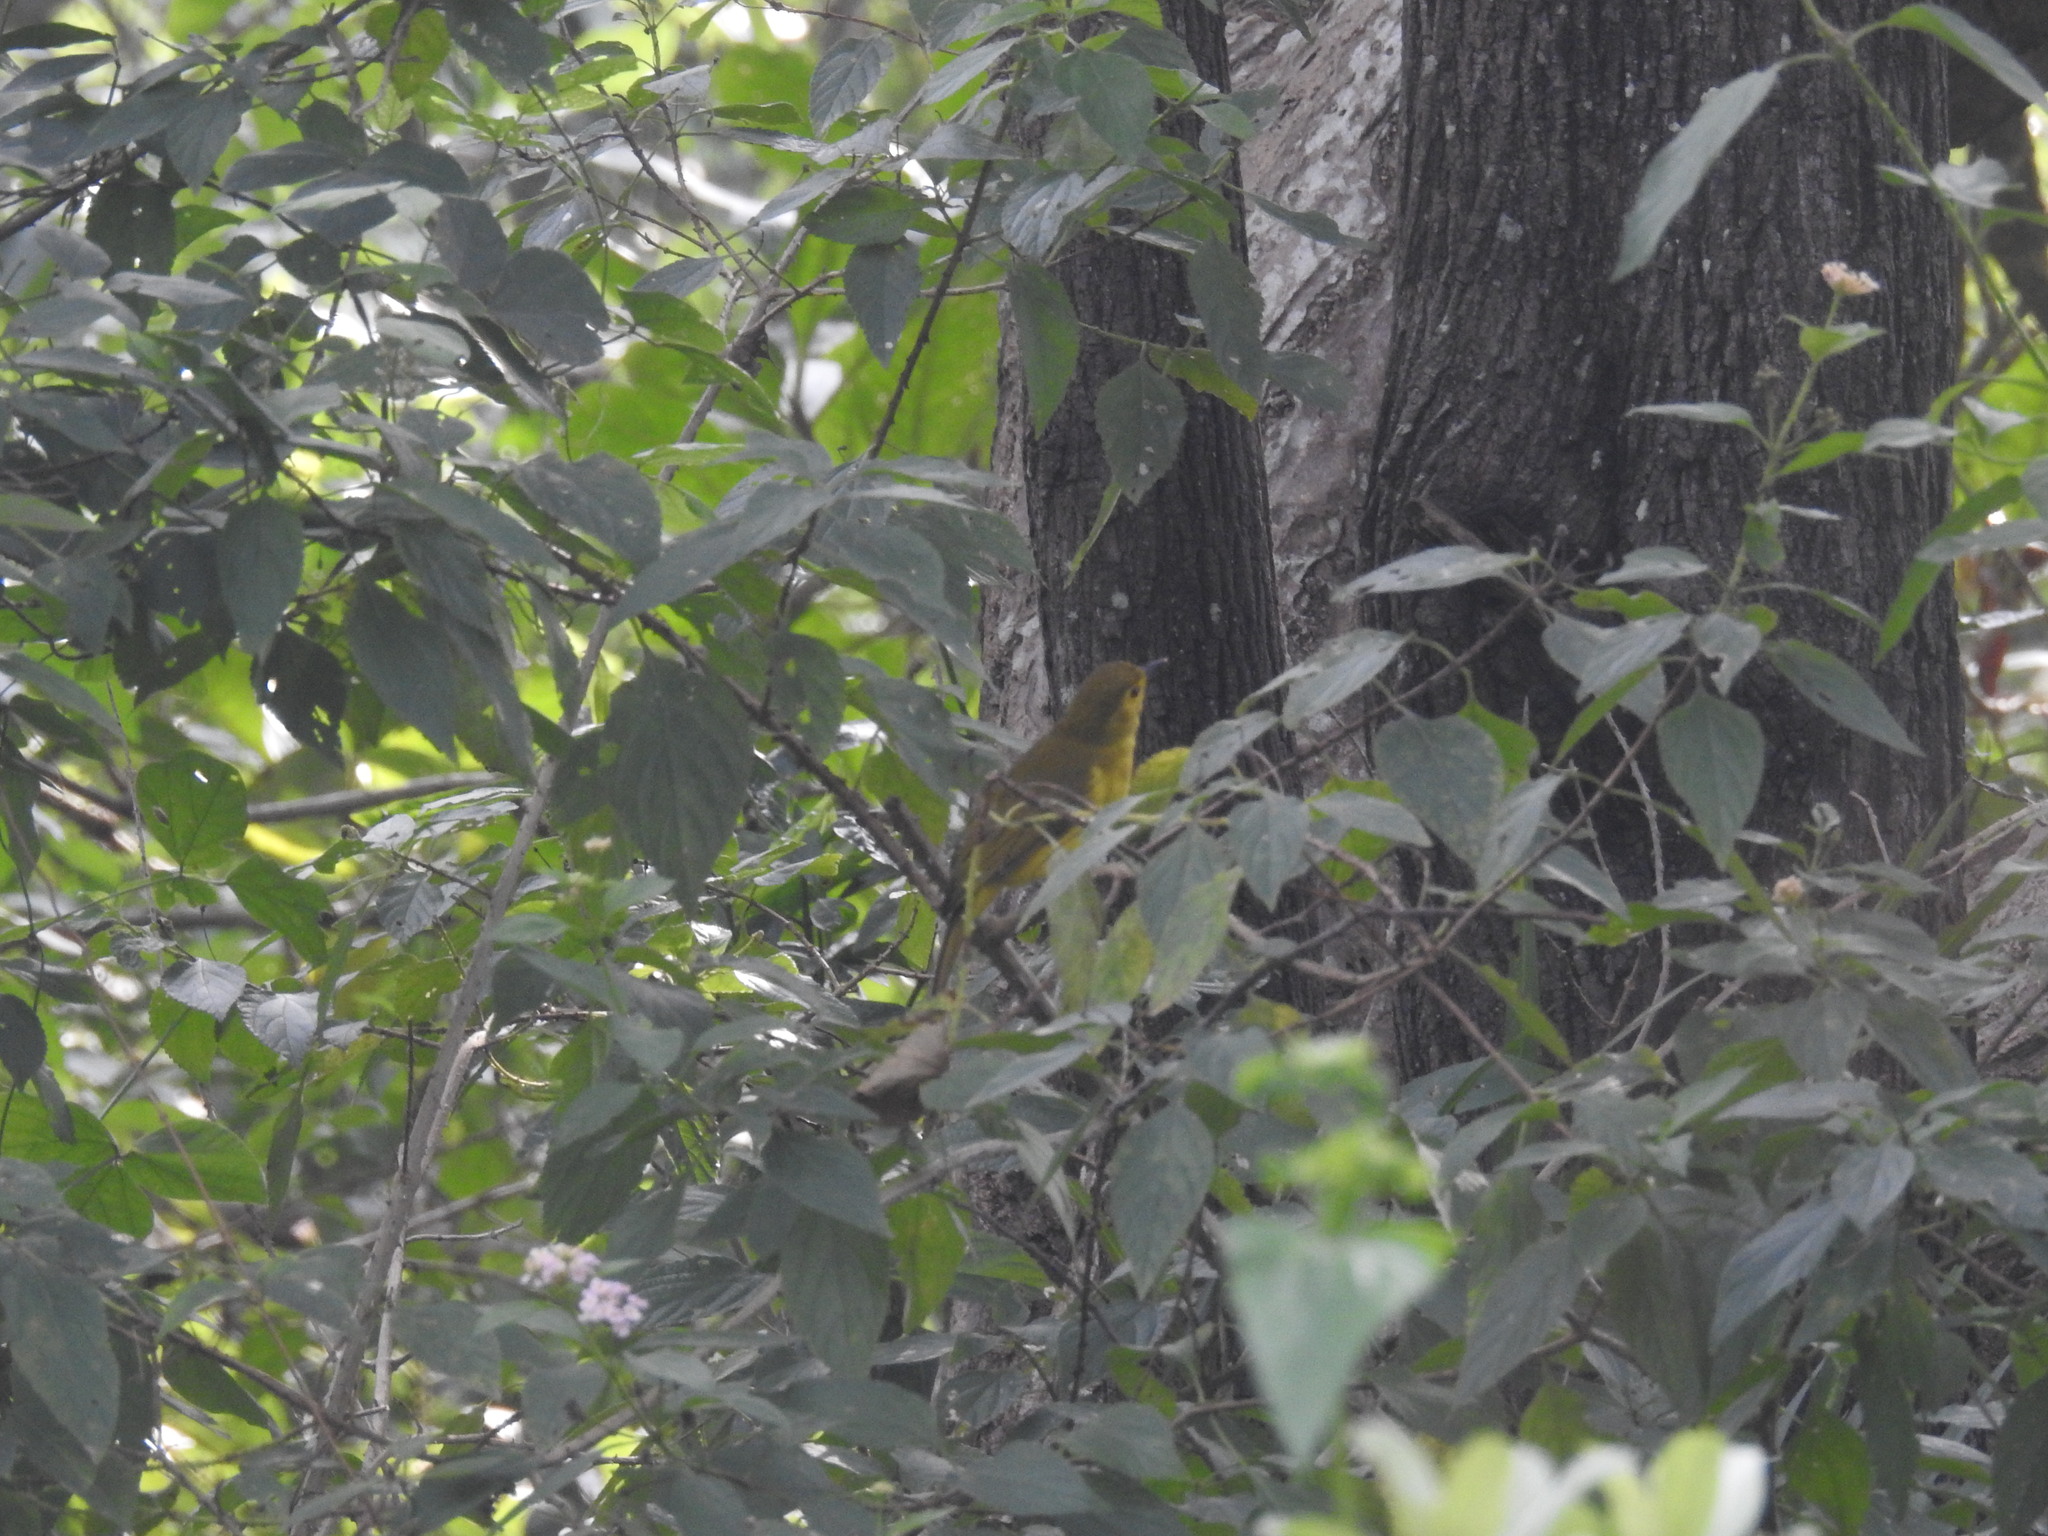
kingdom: Animalia
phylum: Chordata
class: Aves
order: Passeriformes
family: Pycnonotidae
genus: Acritillas
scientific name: Acritillas indica
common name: Yellow-browed bulbul
